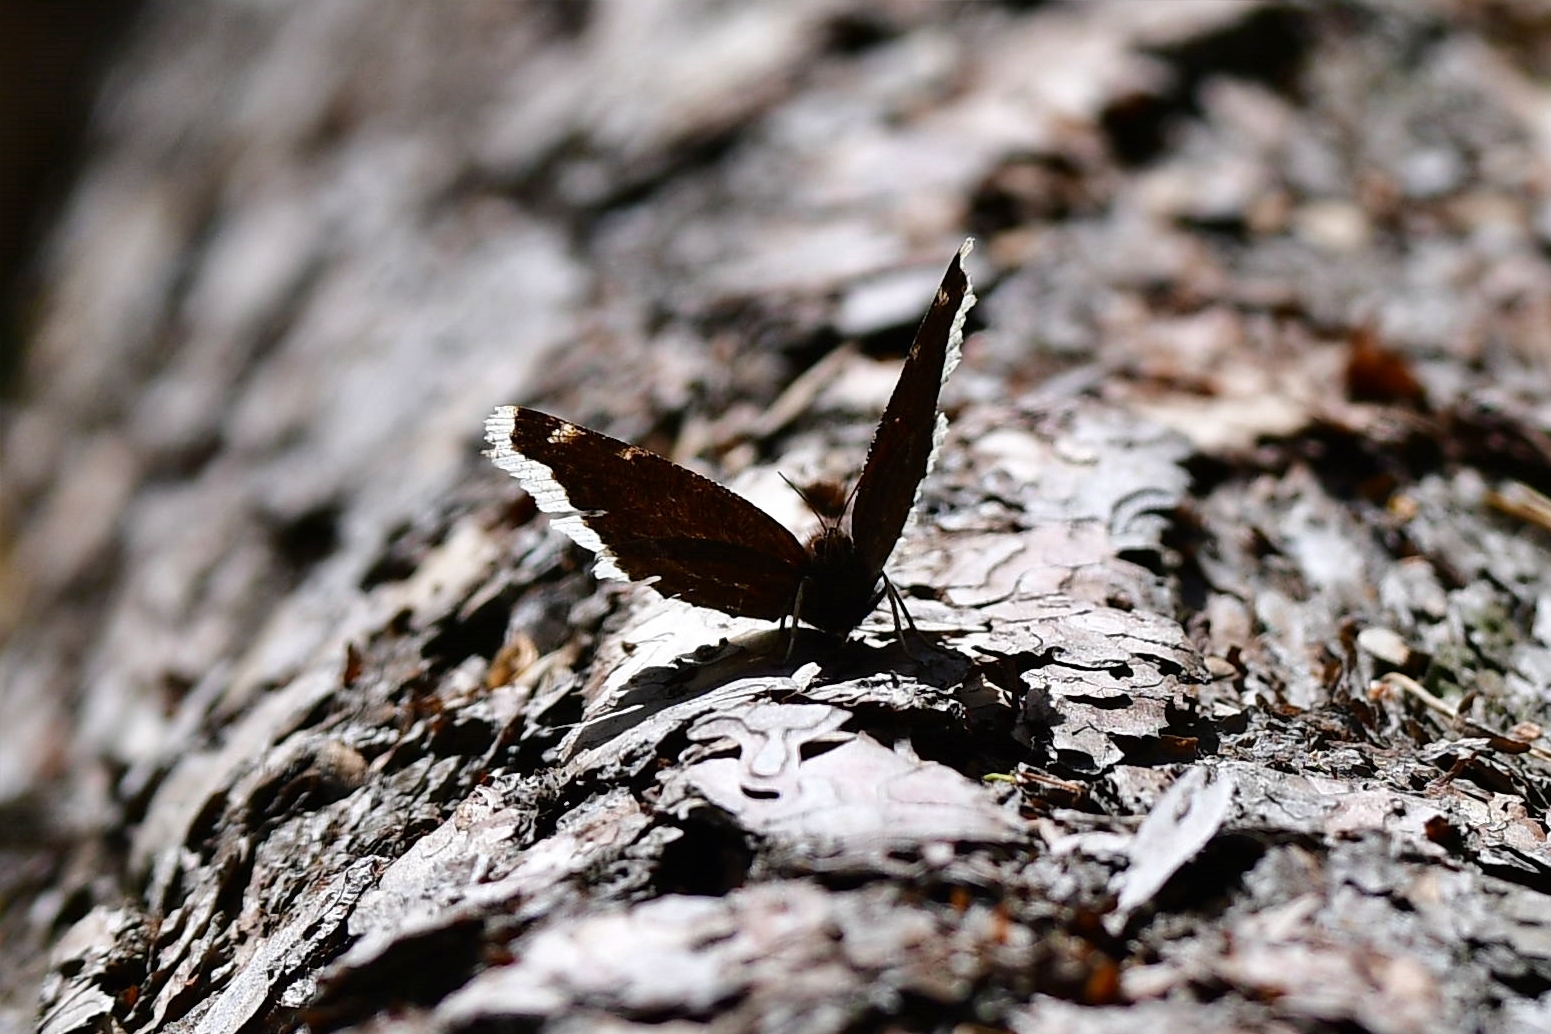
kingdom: Animalia
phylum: Arthropoda
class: Insecta
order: Lepidoptera
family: Nymphalidae
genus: Nymphalis
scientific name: Nymphalis antiopa
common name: Camberwell beauty
